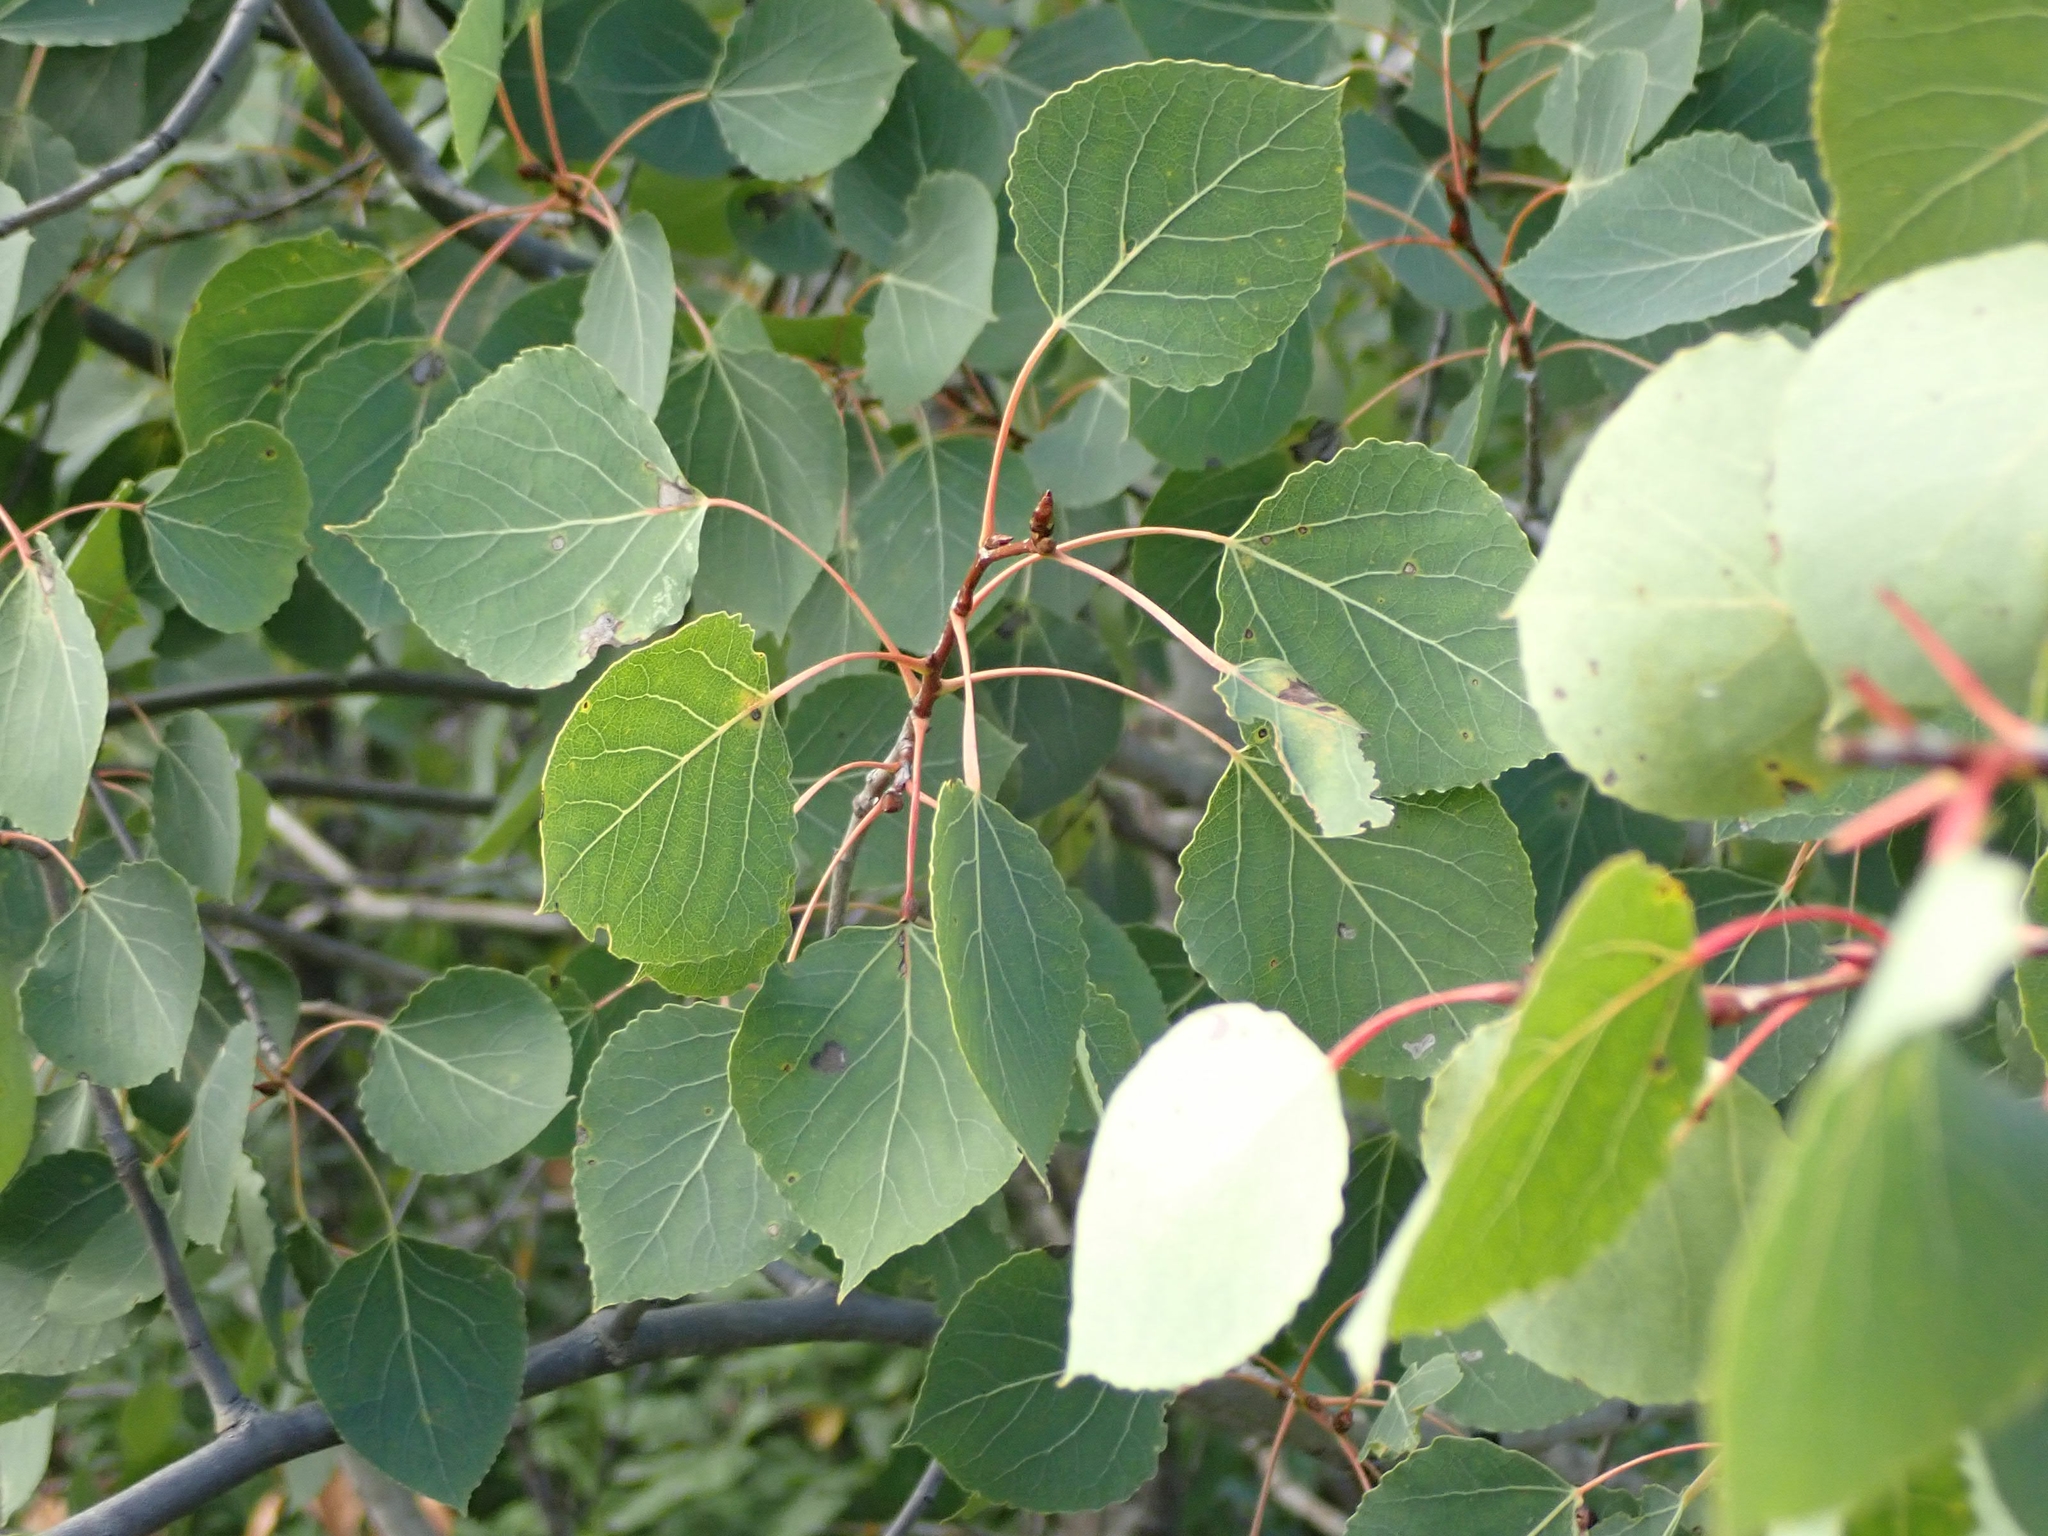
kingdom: Plantae
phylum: Tracheophyta
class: Magnoliopsida
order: Malpighiales
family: Salicaceae
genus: Populus
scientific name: Populus tremuloides
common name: Quaking aspen
